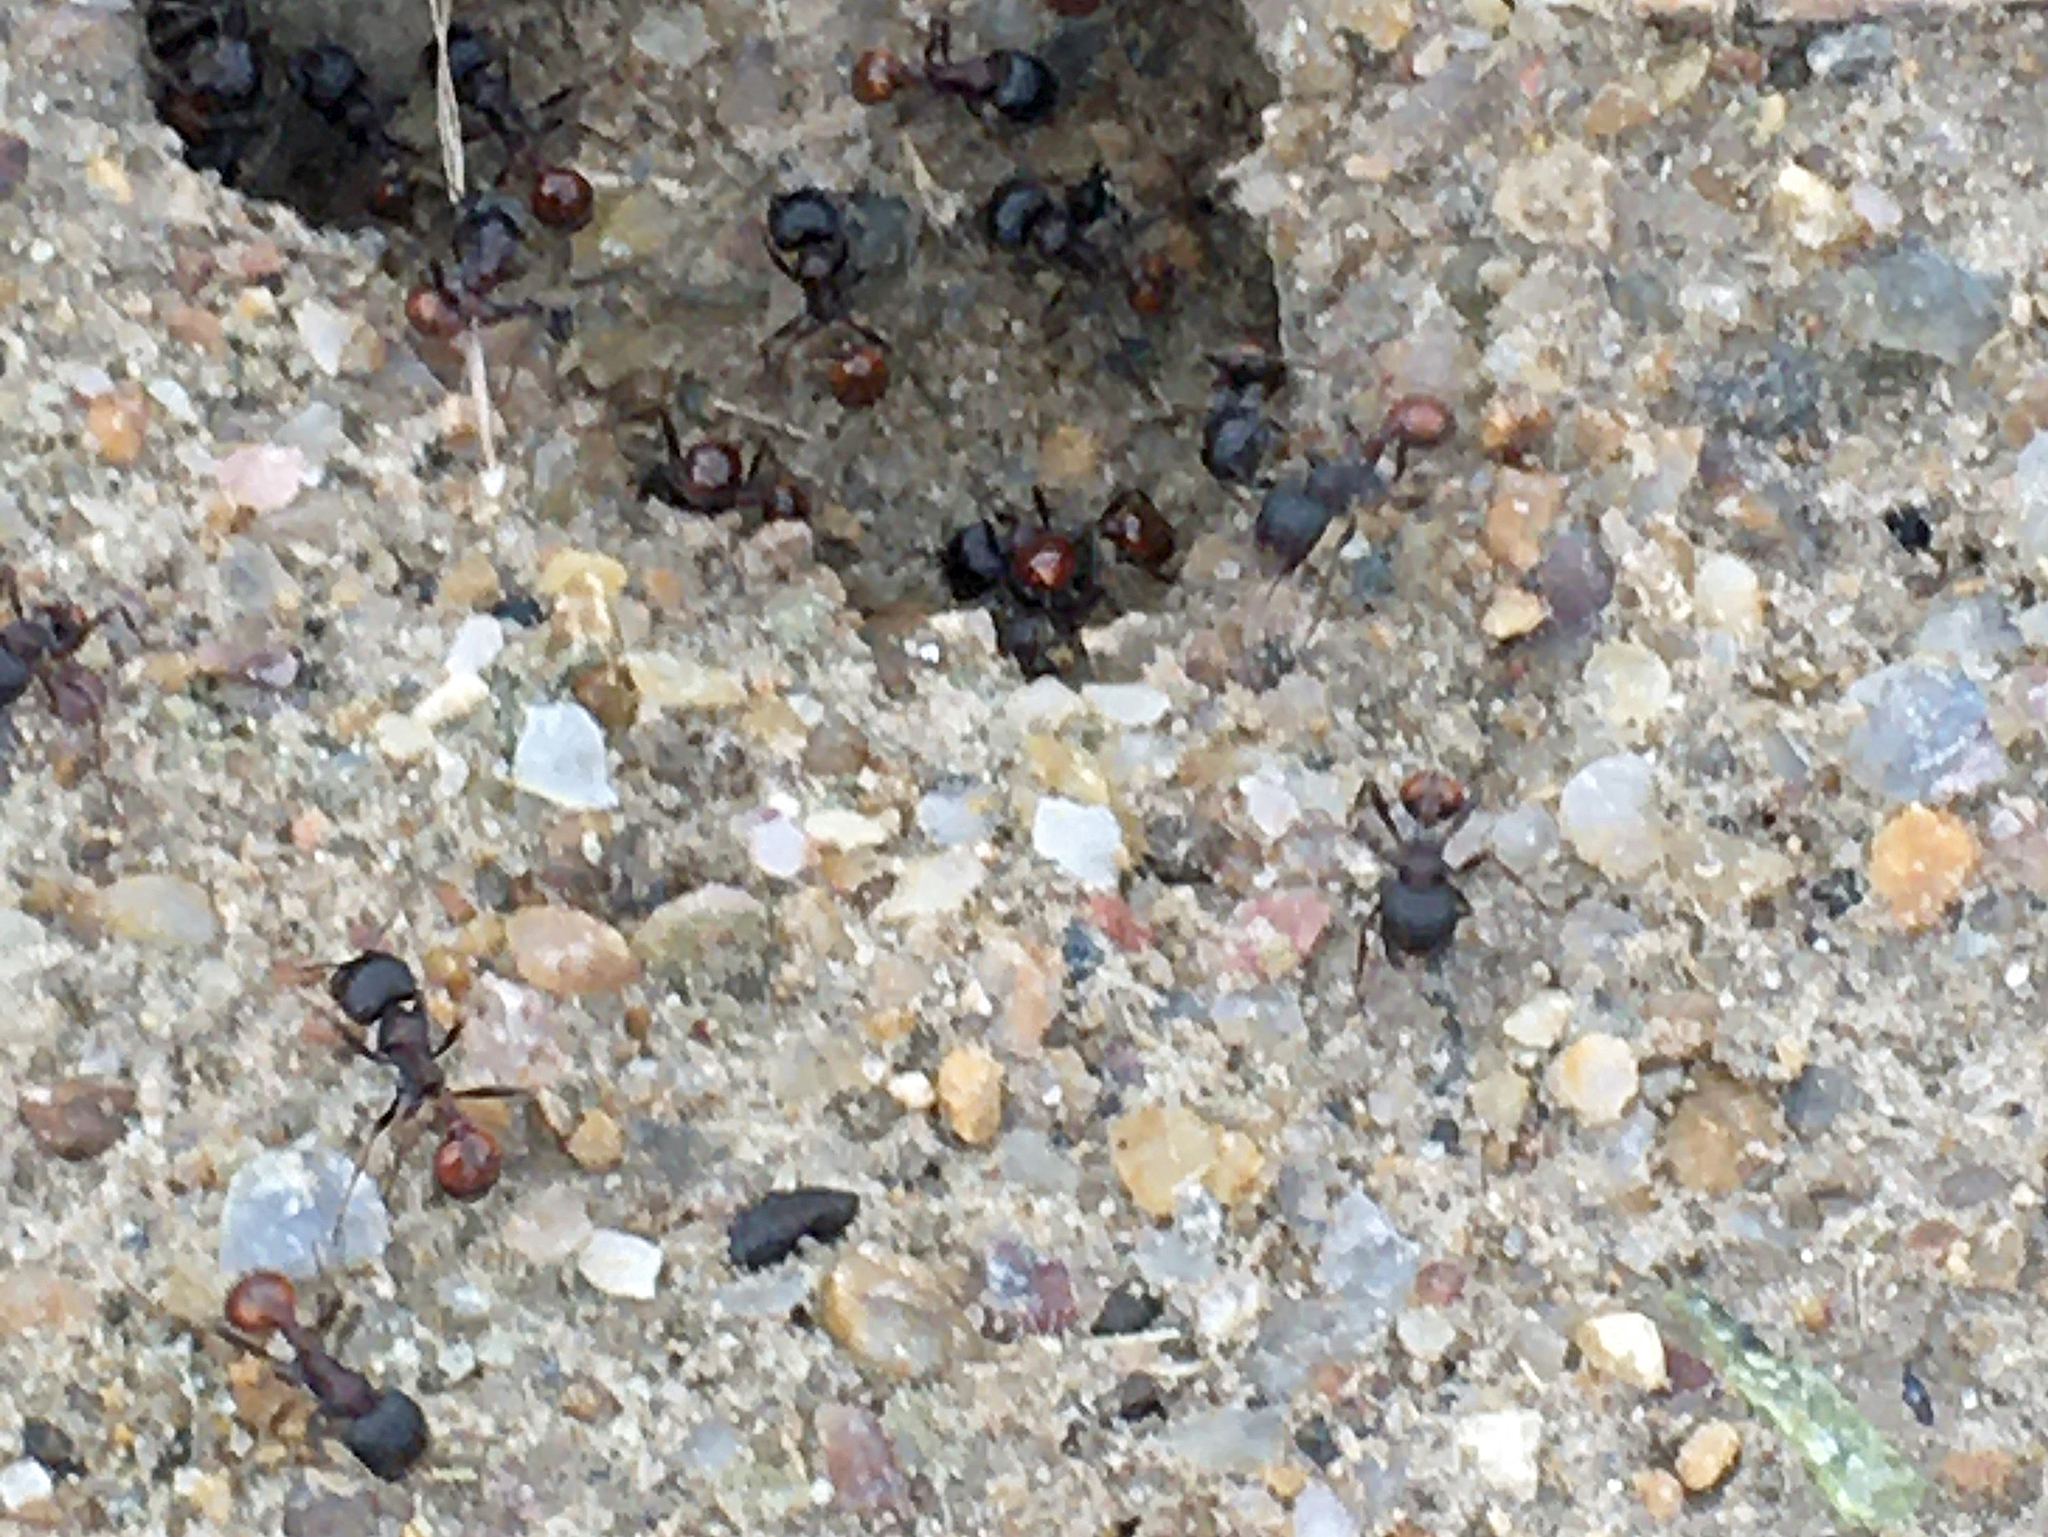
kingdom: Animalia
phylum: Arthropoda
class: Insecta
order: Hymenoptera
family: Formicidae
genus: Pogonomyrmex
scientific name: Pogonomyrmex rugosus
